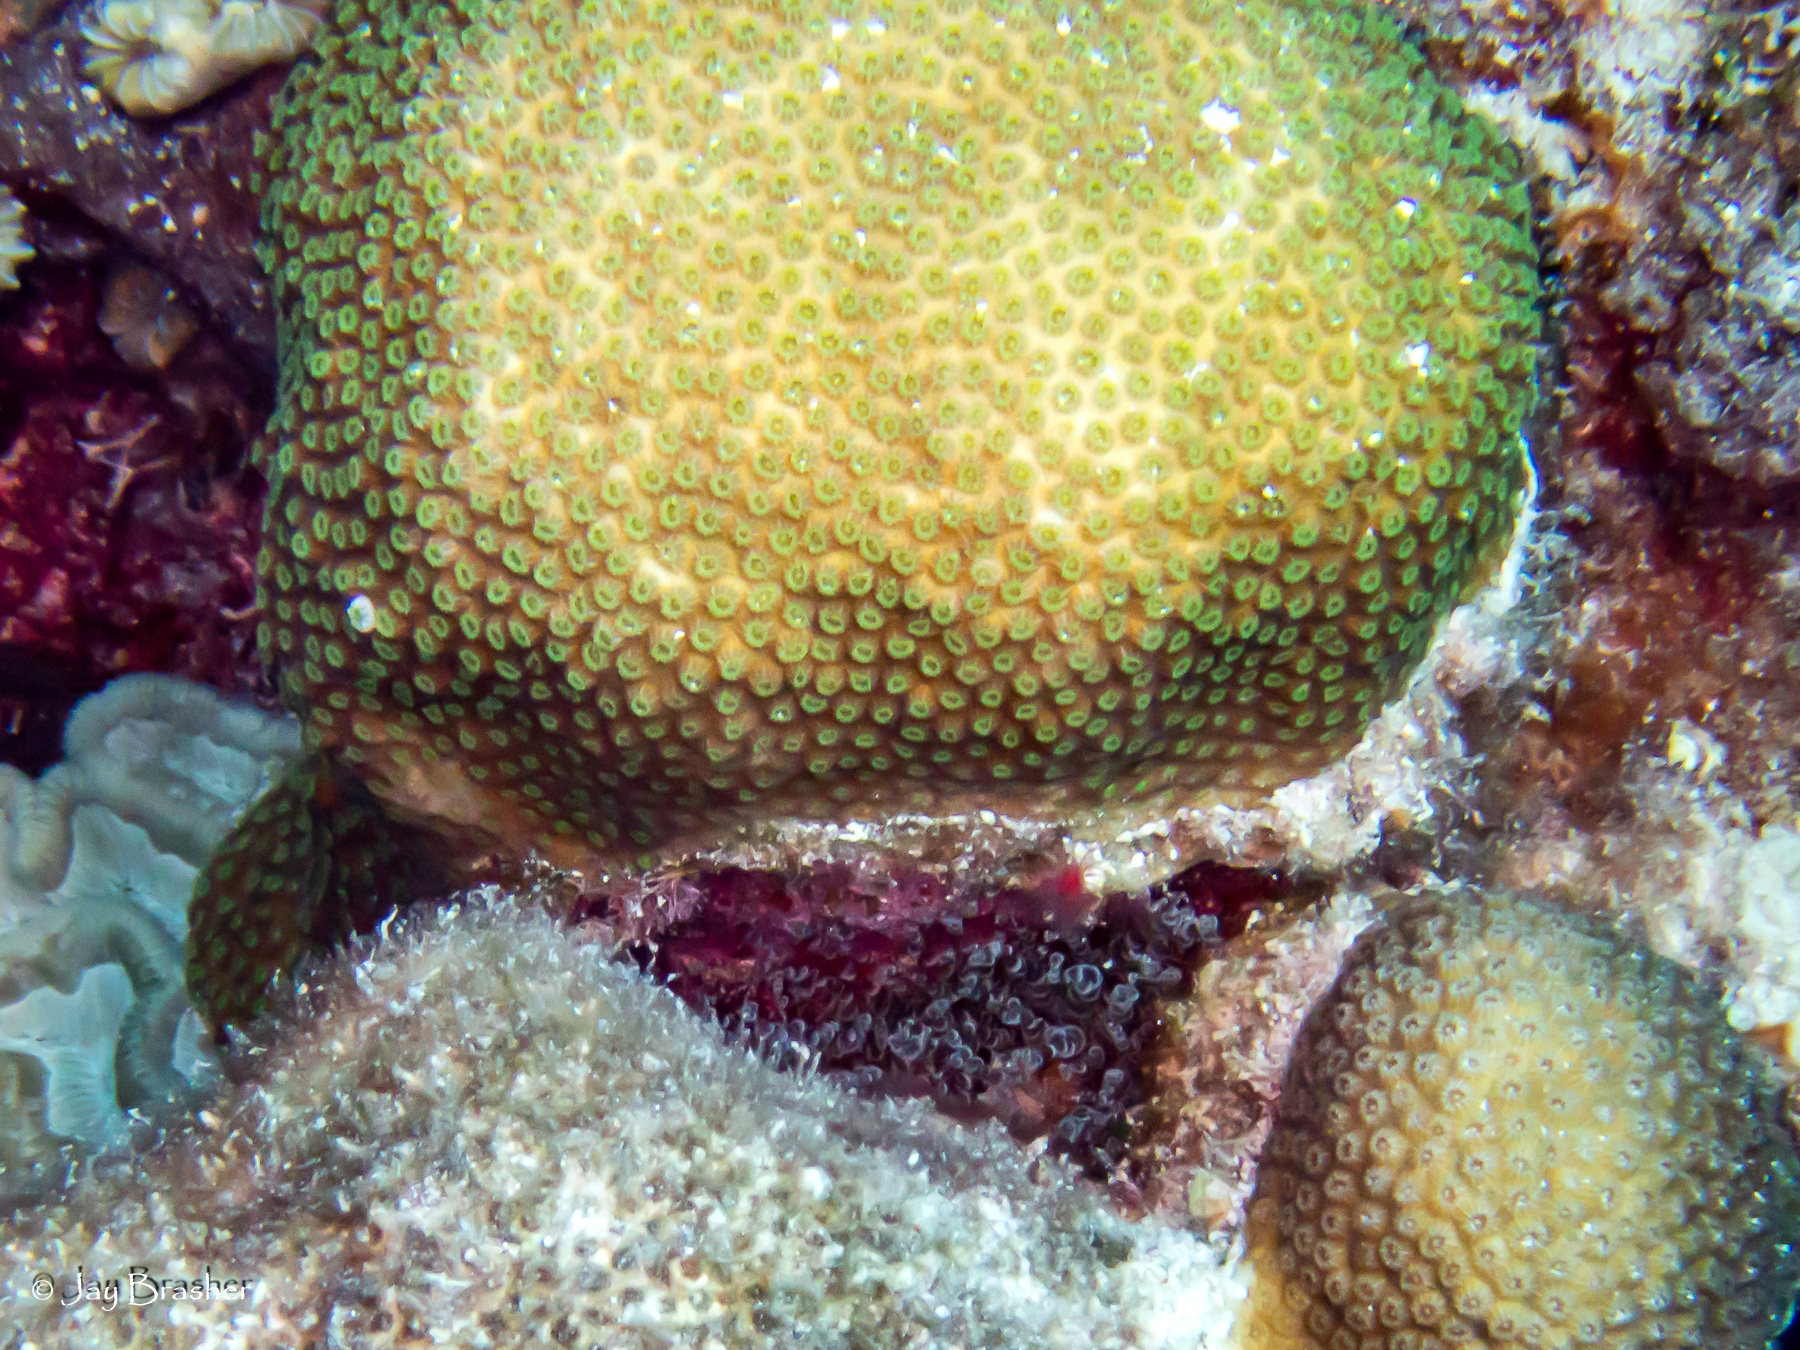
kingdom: Animalia
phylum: Cnidaria
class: Anthozoa
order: Actiniaria
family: Aiptasiidae
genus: Bartholomea
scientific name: Bartholomea annulata
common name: Corkscrew anemone
